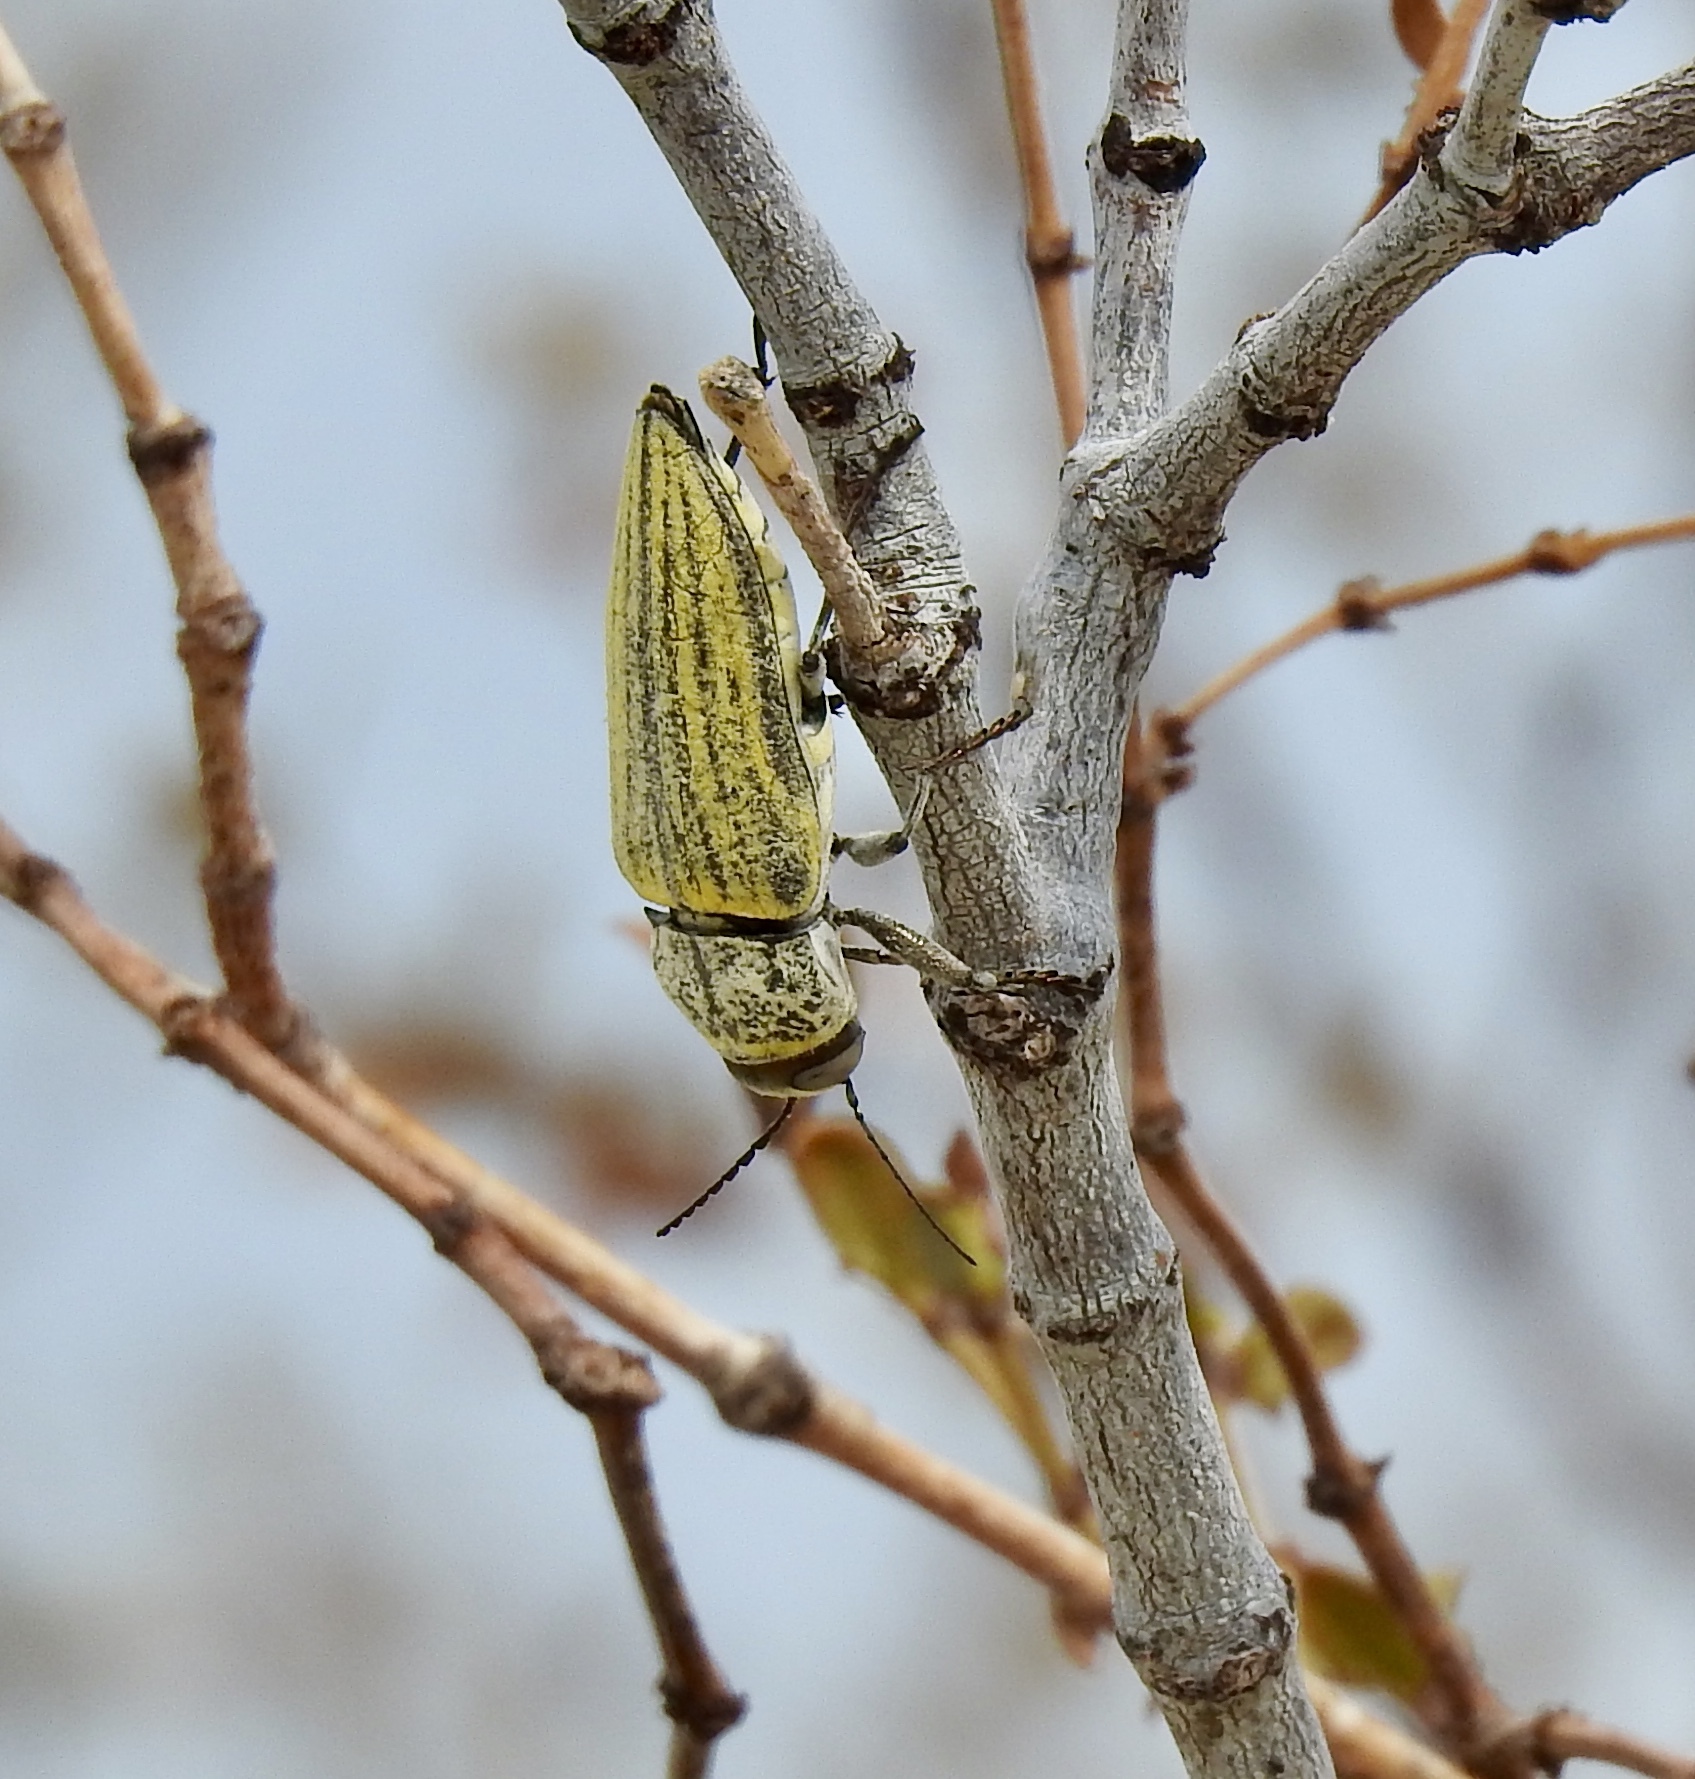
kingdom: Animalia
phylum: Arthropoda
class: Insecta
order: Coleoptera
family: Buprestidae
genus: Gyascutus
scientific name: Gyascutus planicosta
